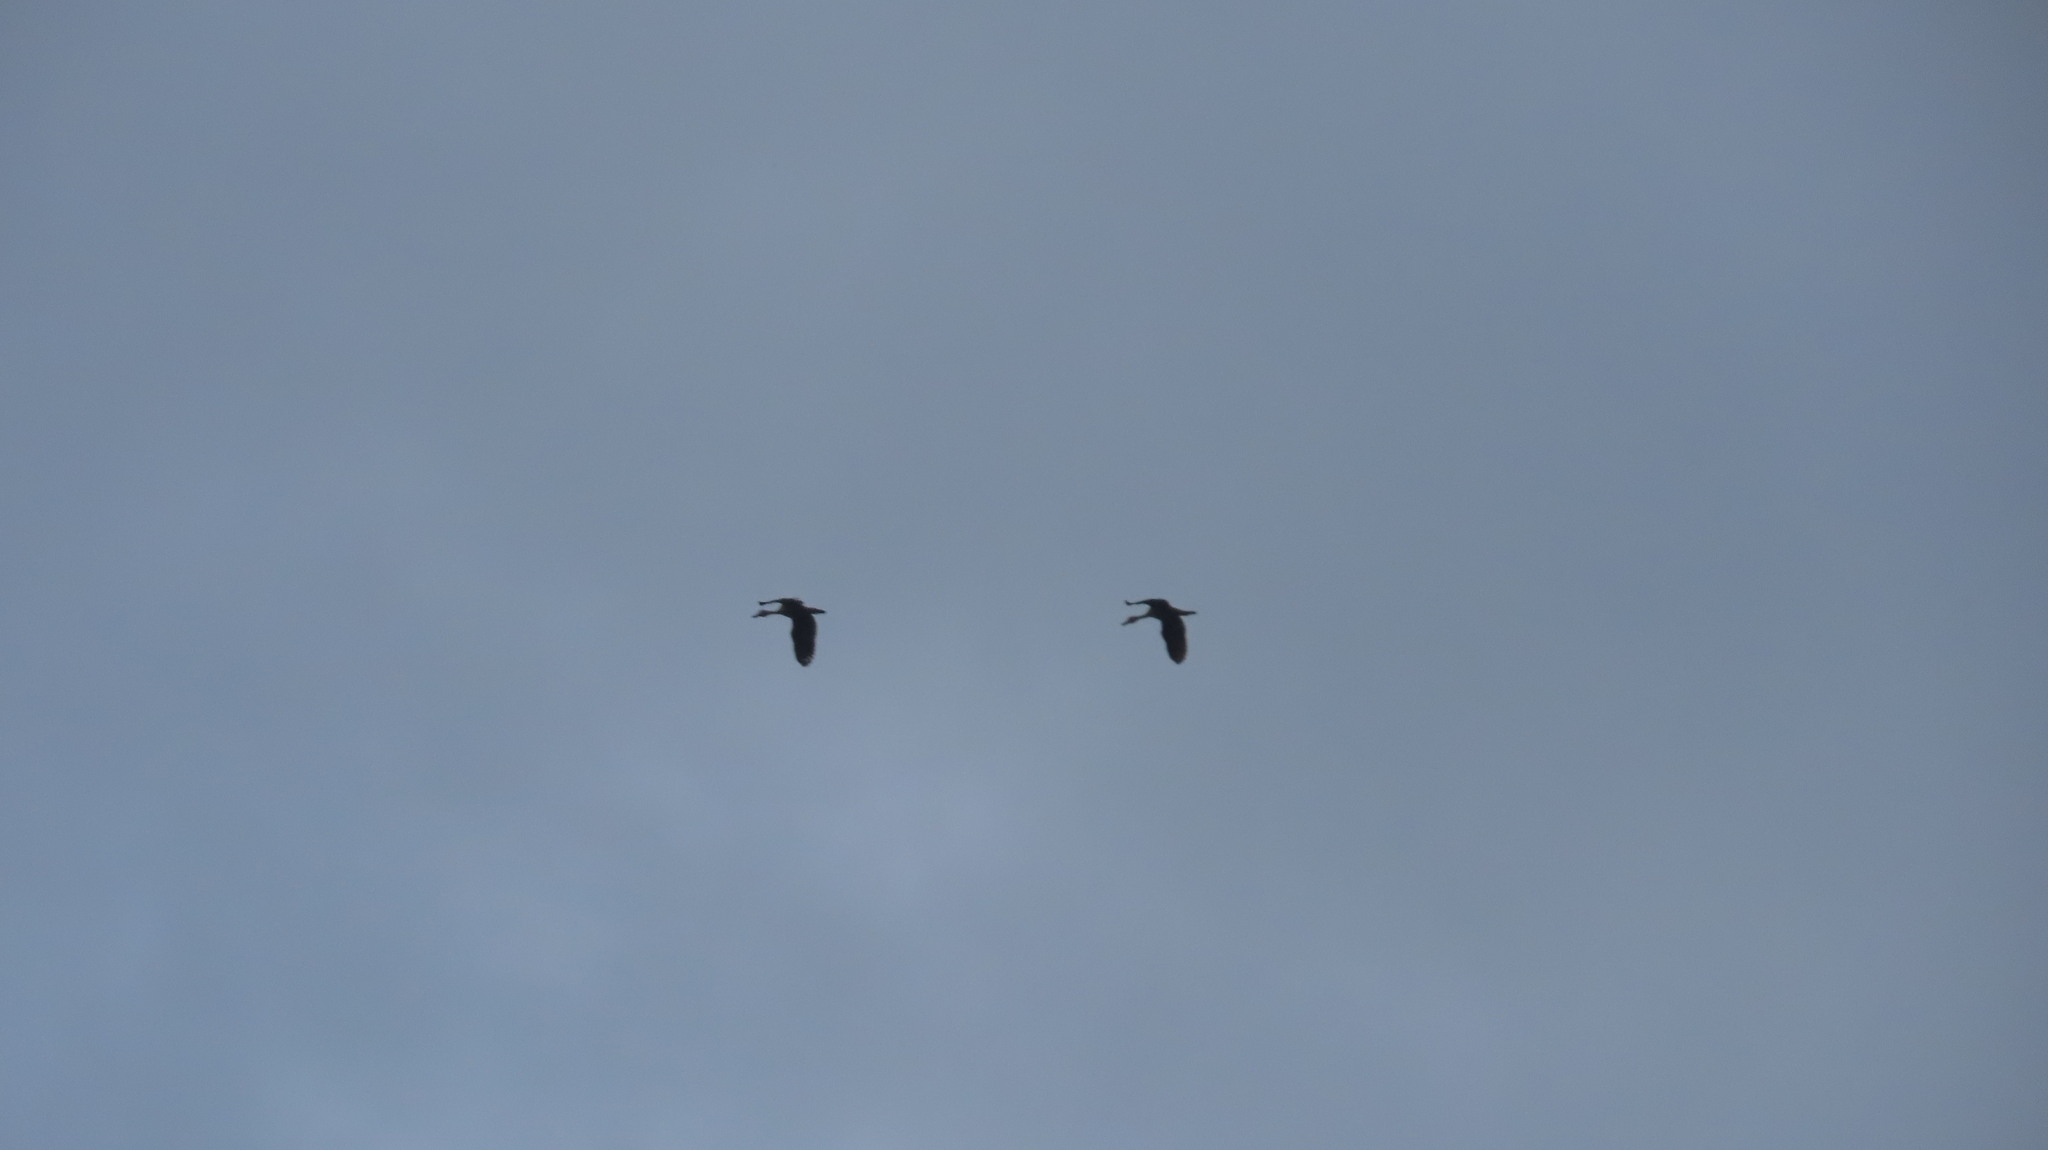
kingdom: Animalia
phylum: Chordata
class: Aves
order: Anseriformes
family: Anatidae
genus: Dendrocygna
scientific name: Dendrocygna javanica
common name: Lesser whistling-duck
